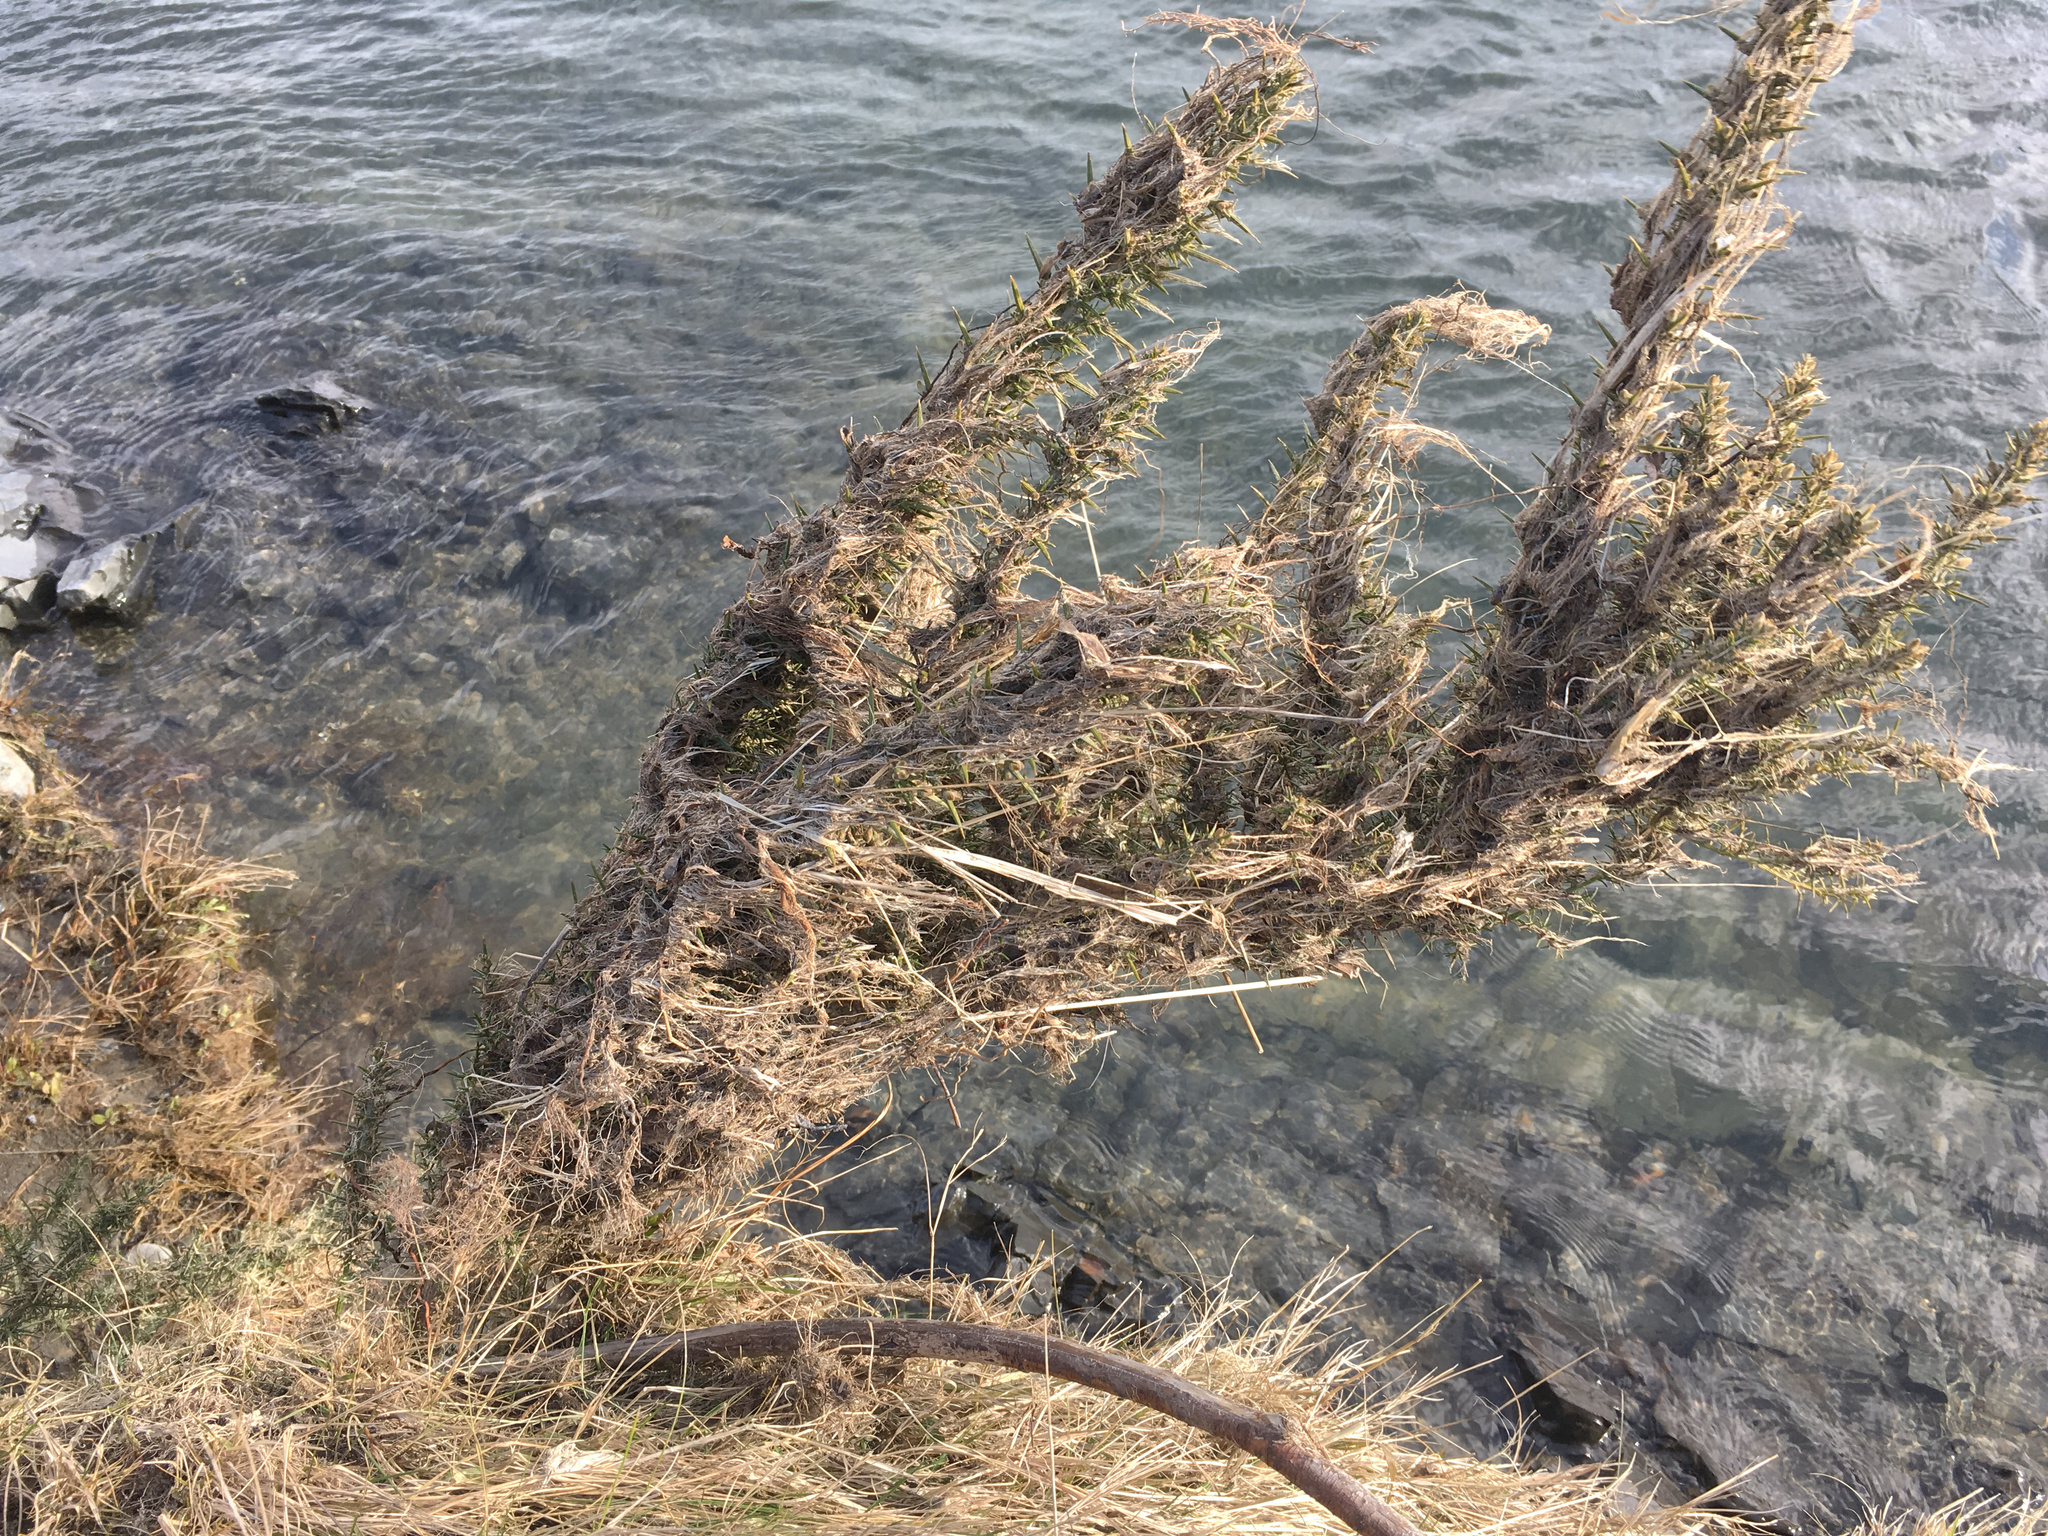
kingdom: Plantae
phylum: Tracheophyta
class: Magnoliopsida
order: Fabales
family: Fabaceae
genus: Ulex
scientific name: Ulex europaeus
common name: Common gorse
